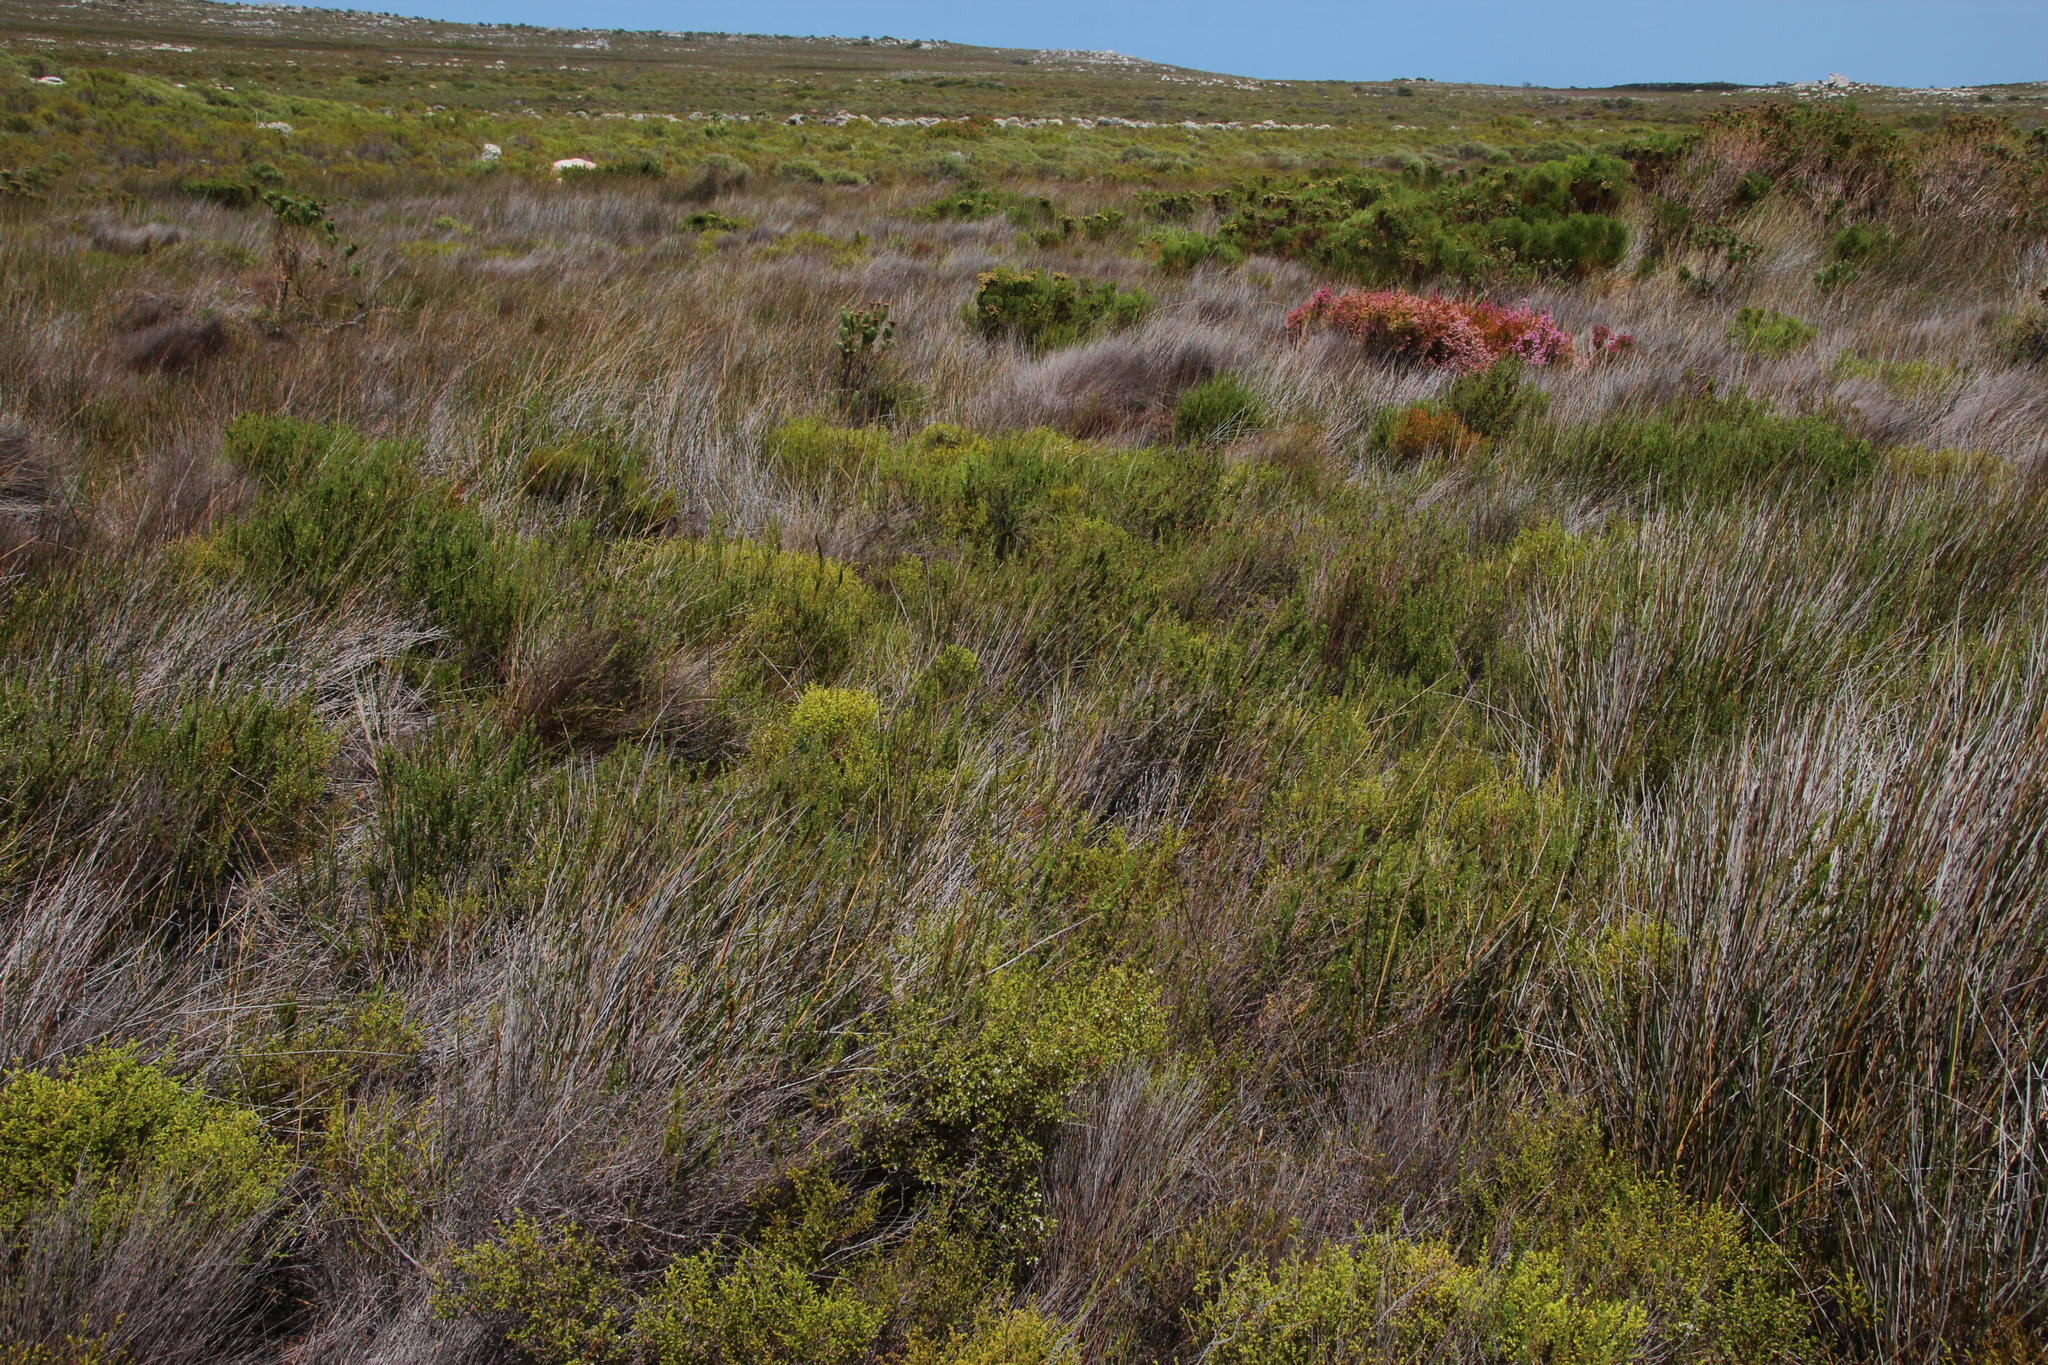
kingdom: Plantae
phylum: Tracheophyta
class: Magnoliopsida
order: Ericales
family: Ericaceae
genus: Erica
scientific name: Erica subdivaricata
